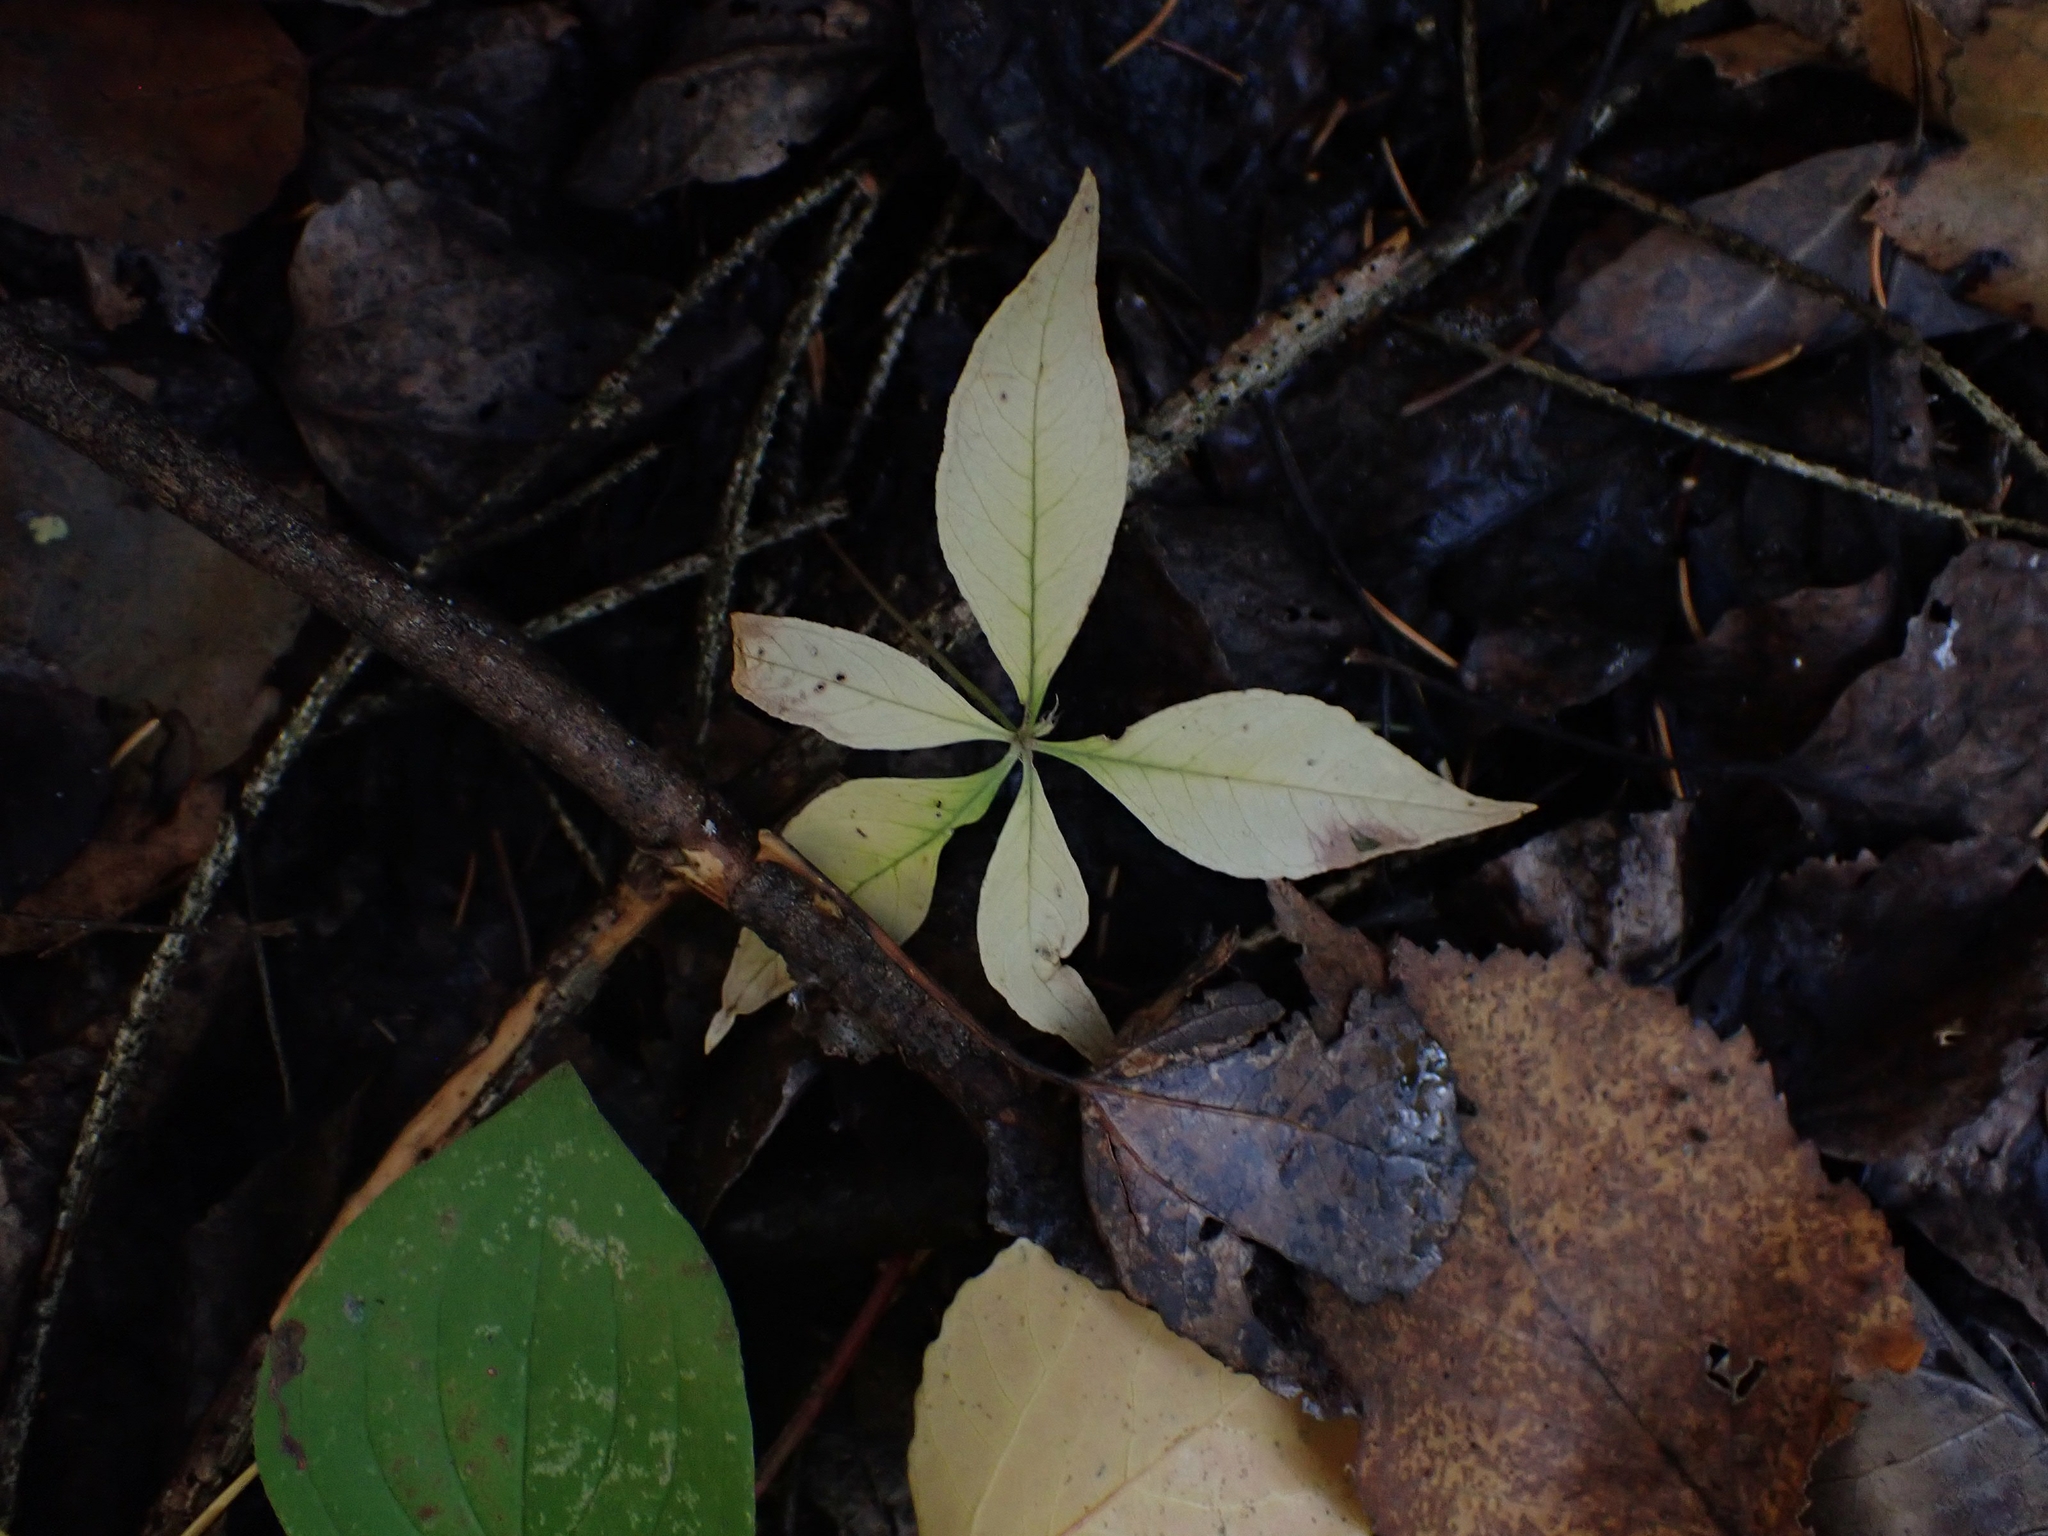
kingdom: Plantae
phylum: Tracheophyta
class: Magnoliopsida
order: Ericales
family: Primulaceae
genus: Lysimachia
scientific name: Lysimachia borealis
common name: American starflower
